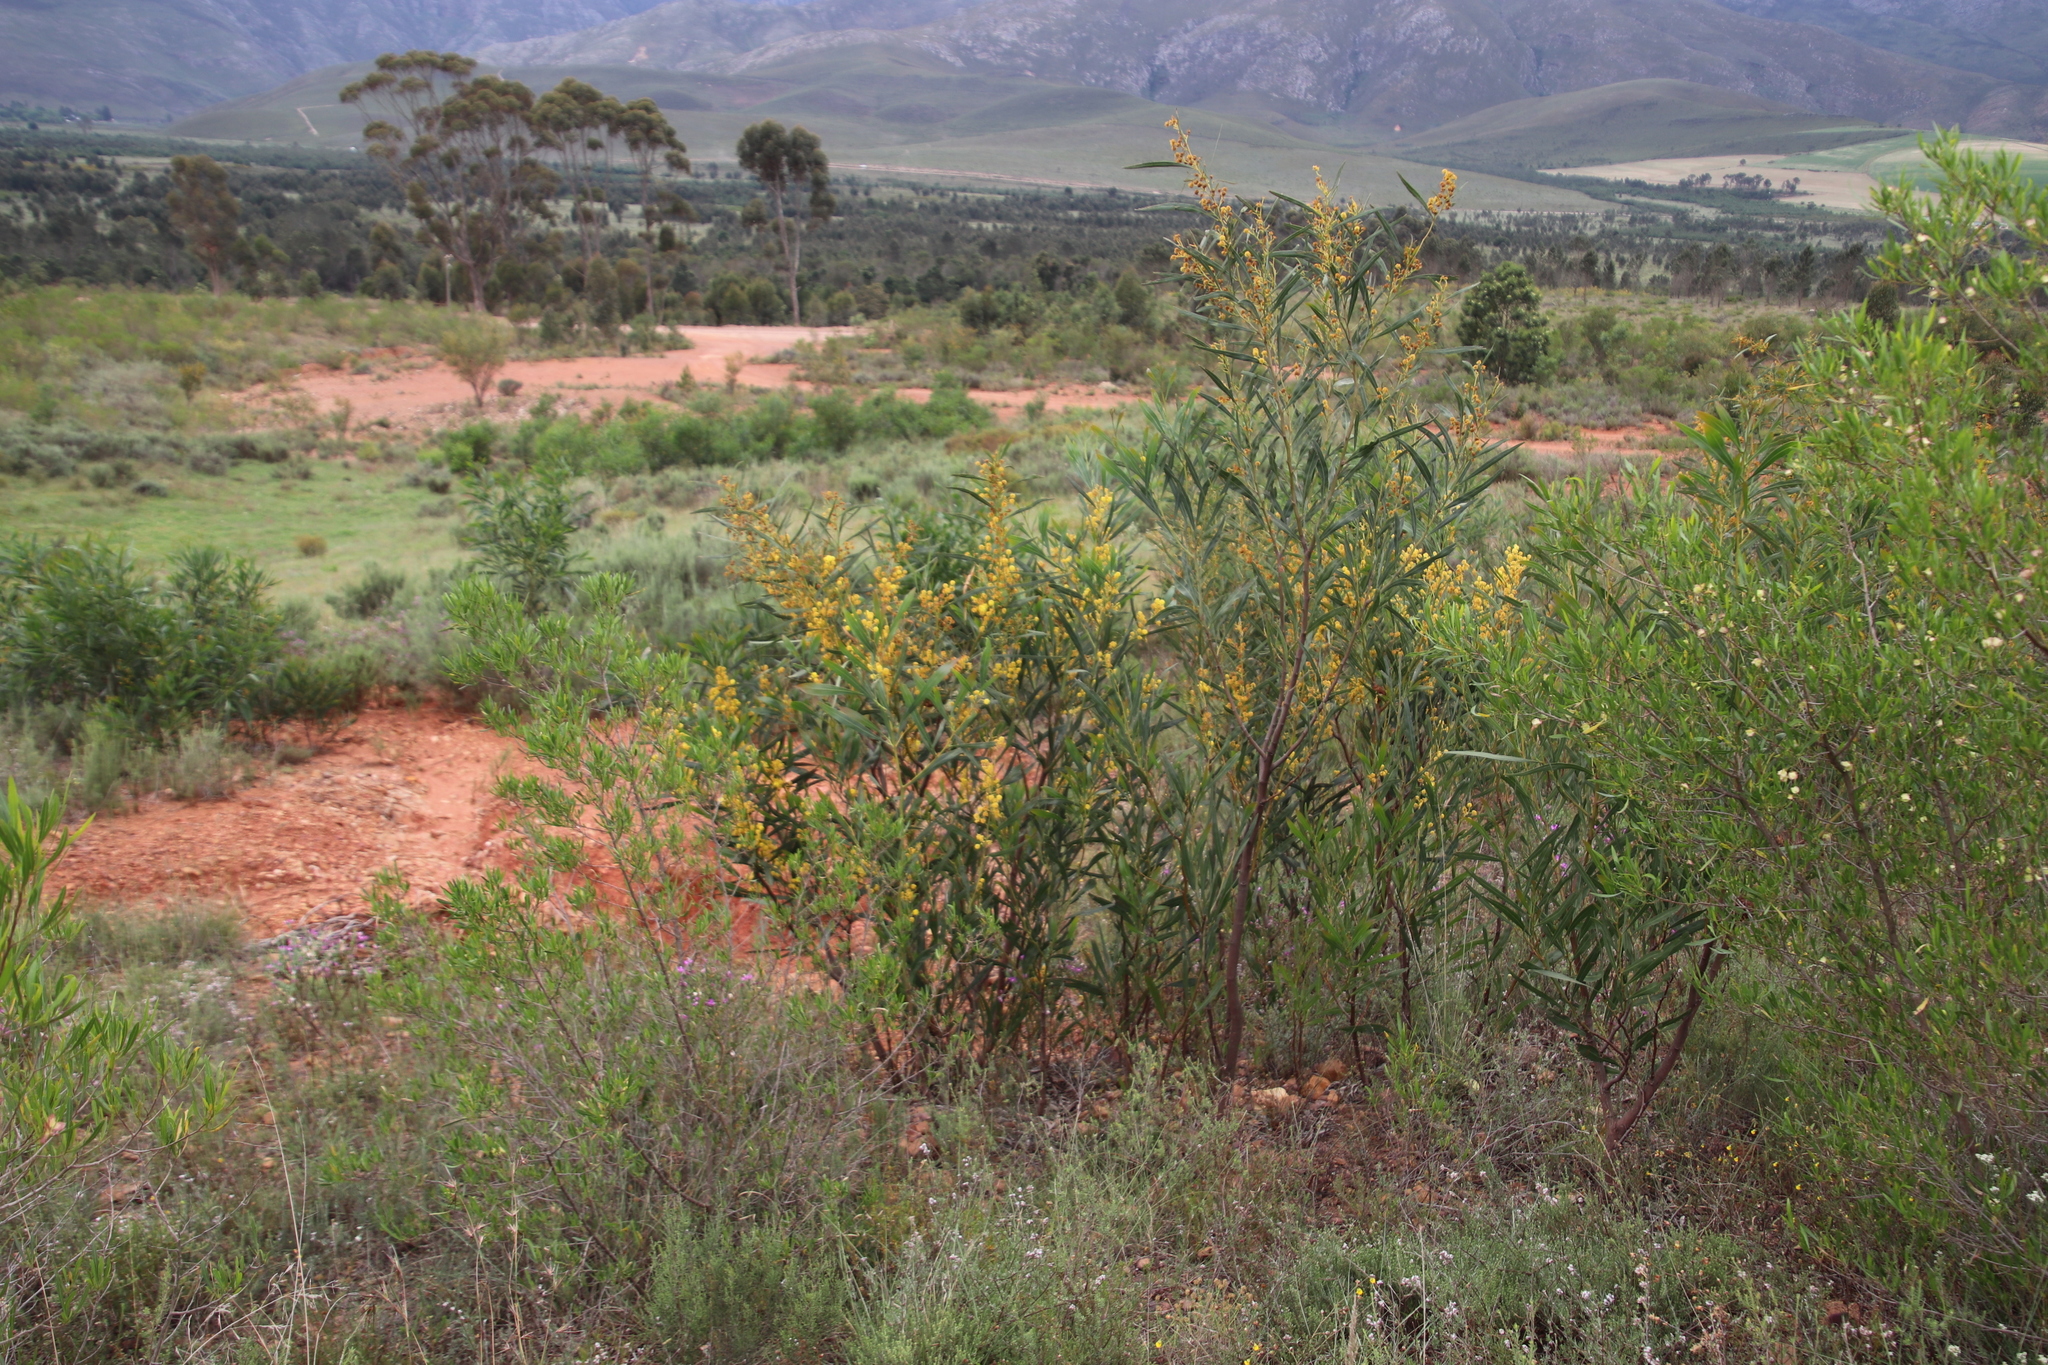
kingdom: Plantae
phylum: Tracheophyta
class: Magnoliopsida
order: Fabales
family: Fabaceae
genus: Acacia
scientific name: Acacia saligna
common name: Orange wattle
